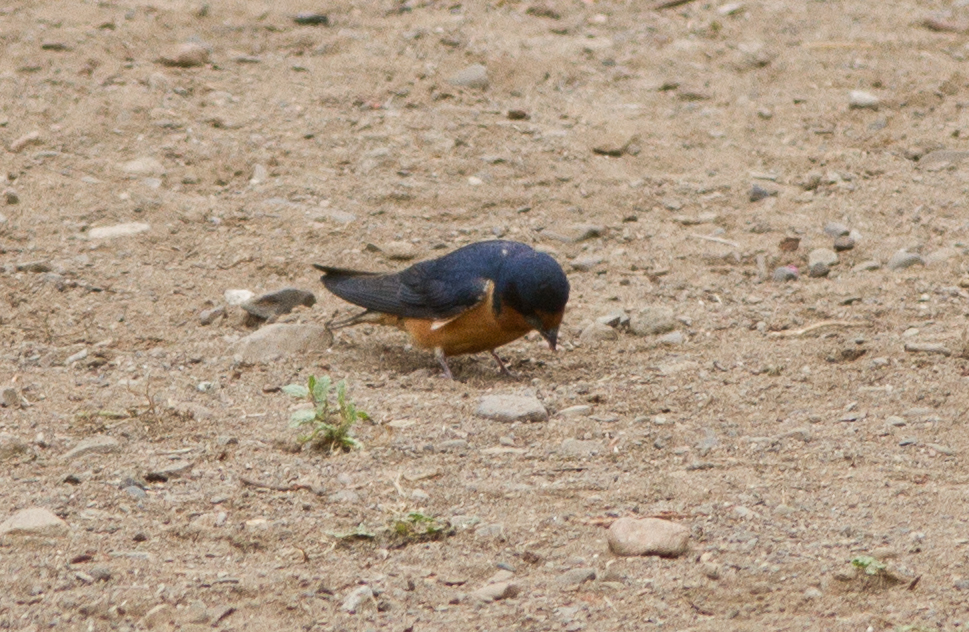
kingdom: Animalia
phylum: Chordata
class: Aves
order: Passeriformes
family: Hirundinidae
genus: Hirundo
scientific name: Hirundo rustica
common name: Barn swallow
